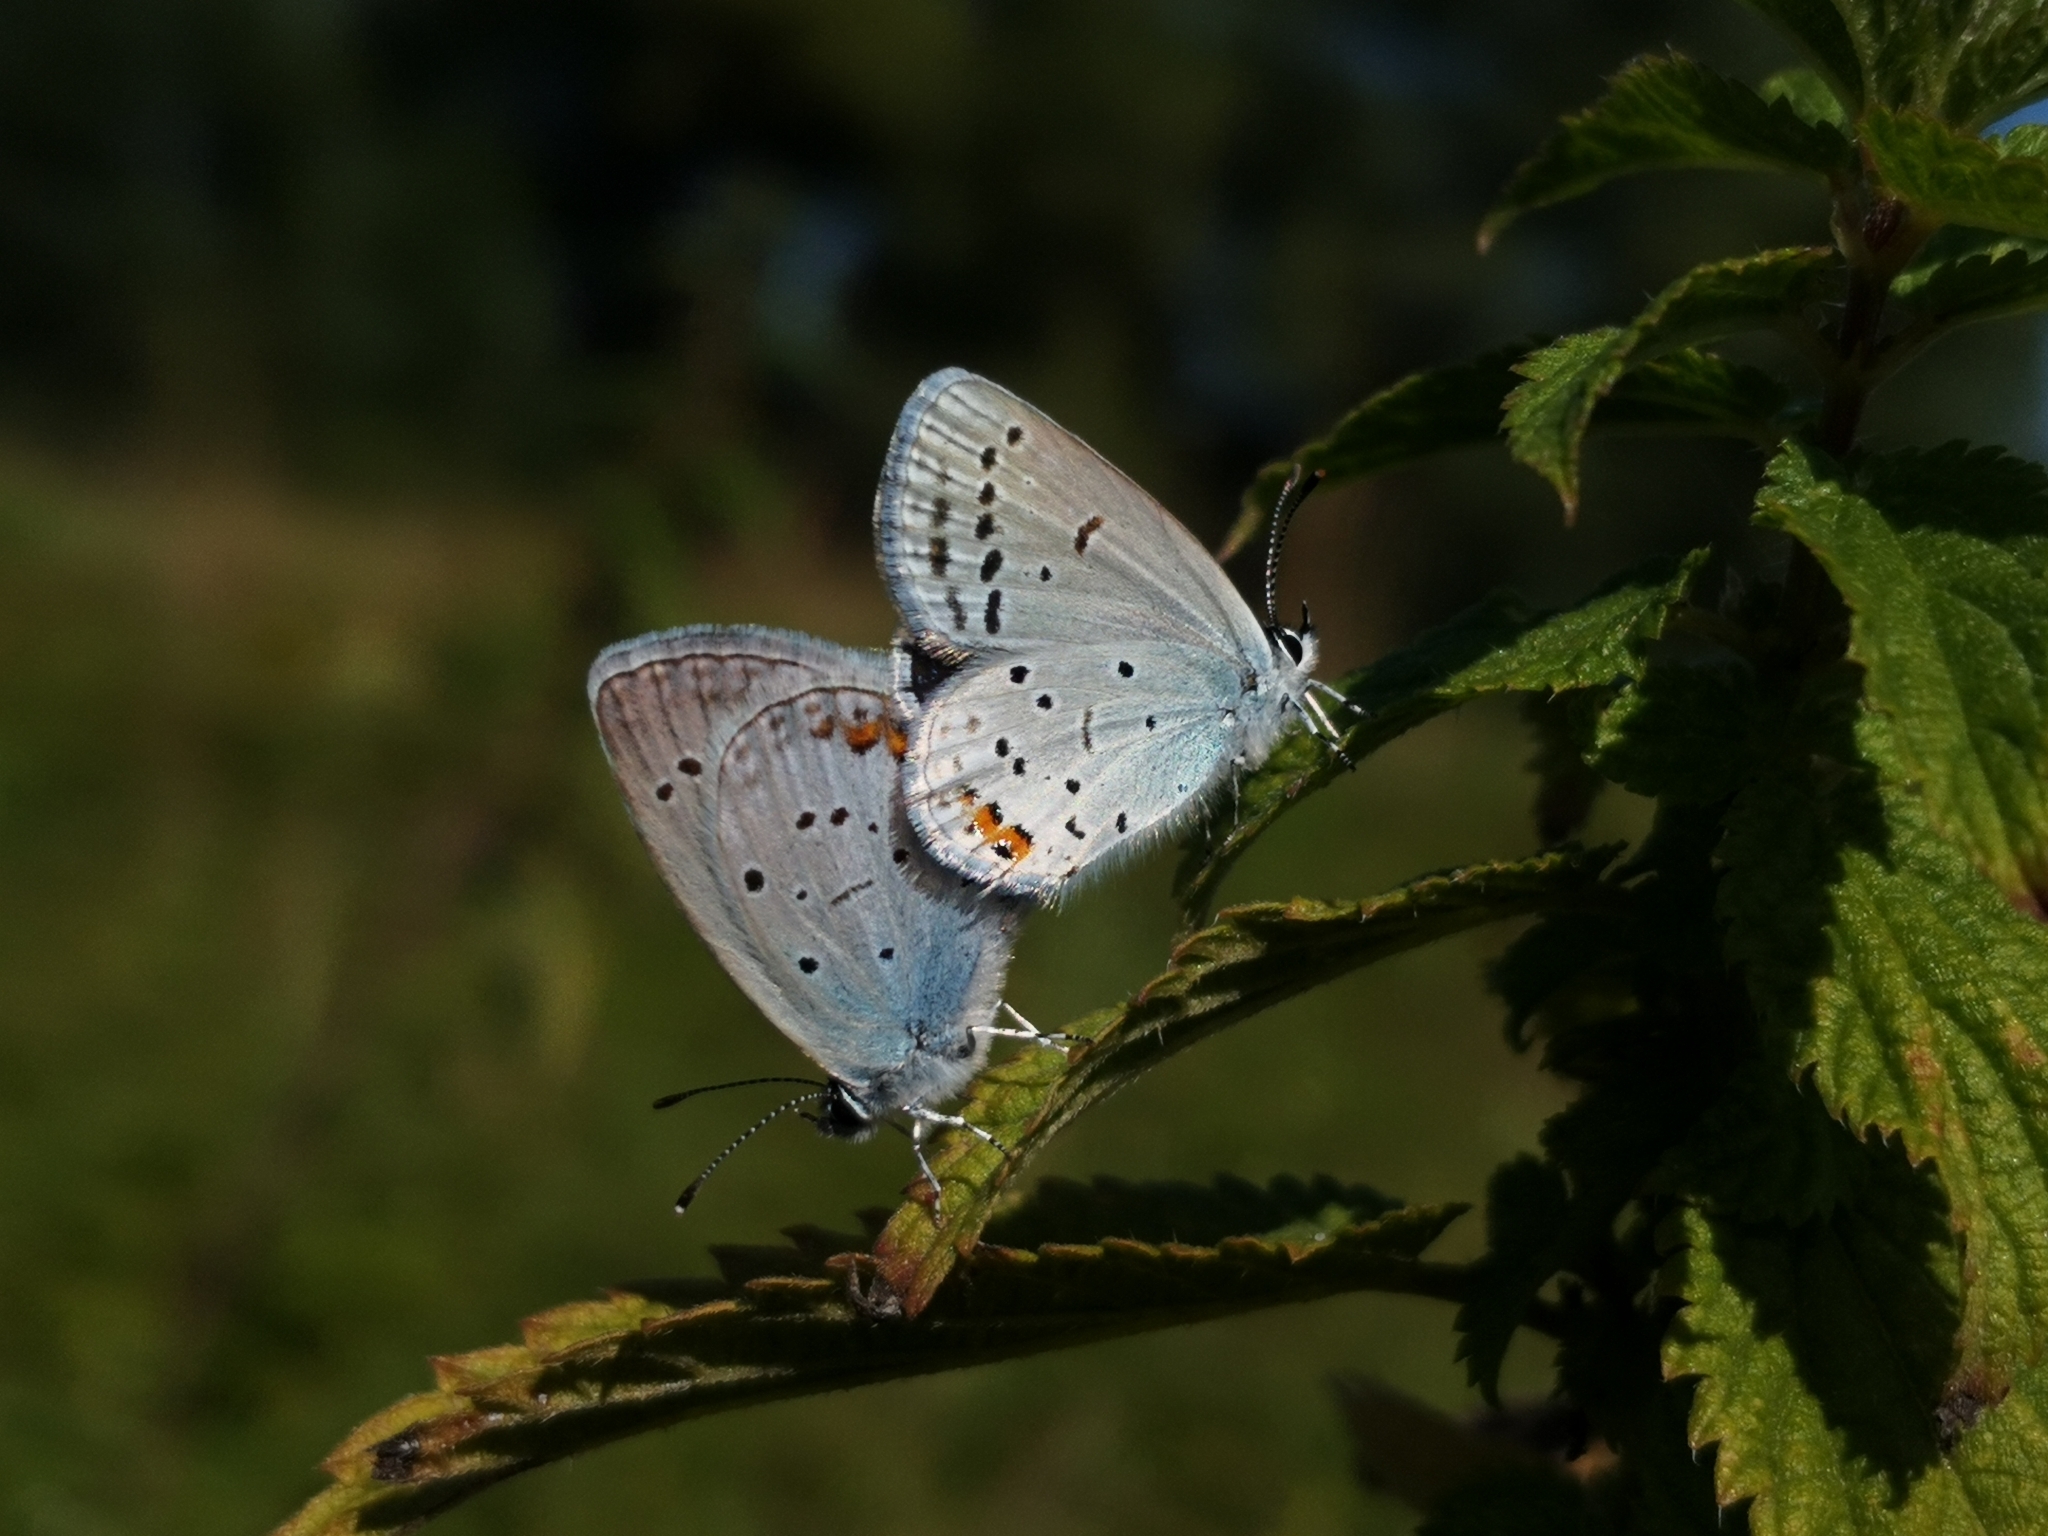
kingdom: Animalia
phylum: Arthropoda
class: Insecta
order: Lepidoptera
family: Lycaenidae
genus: Elkalyce
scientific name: Elkalyce argiades
